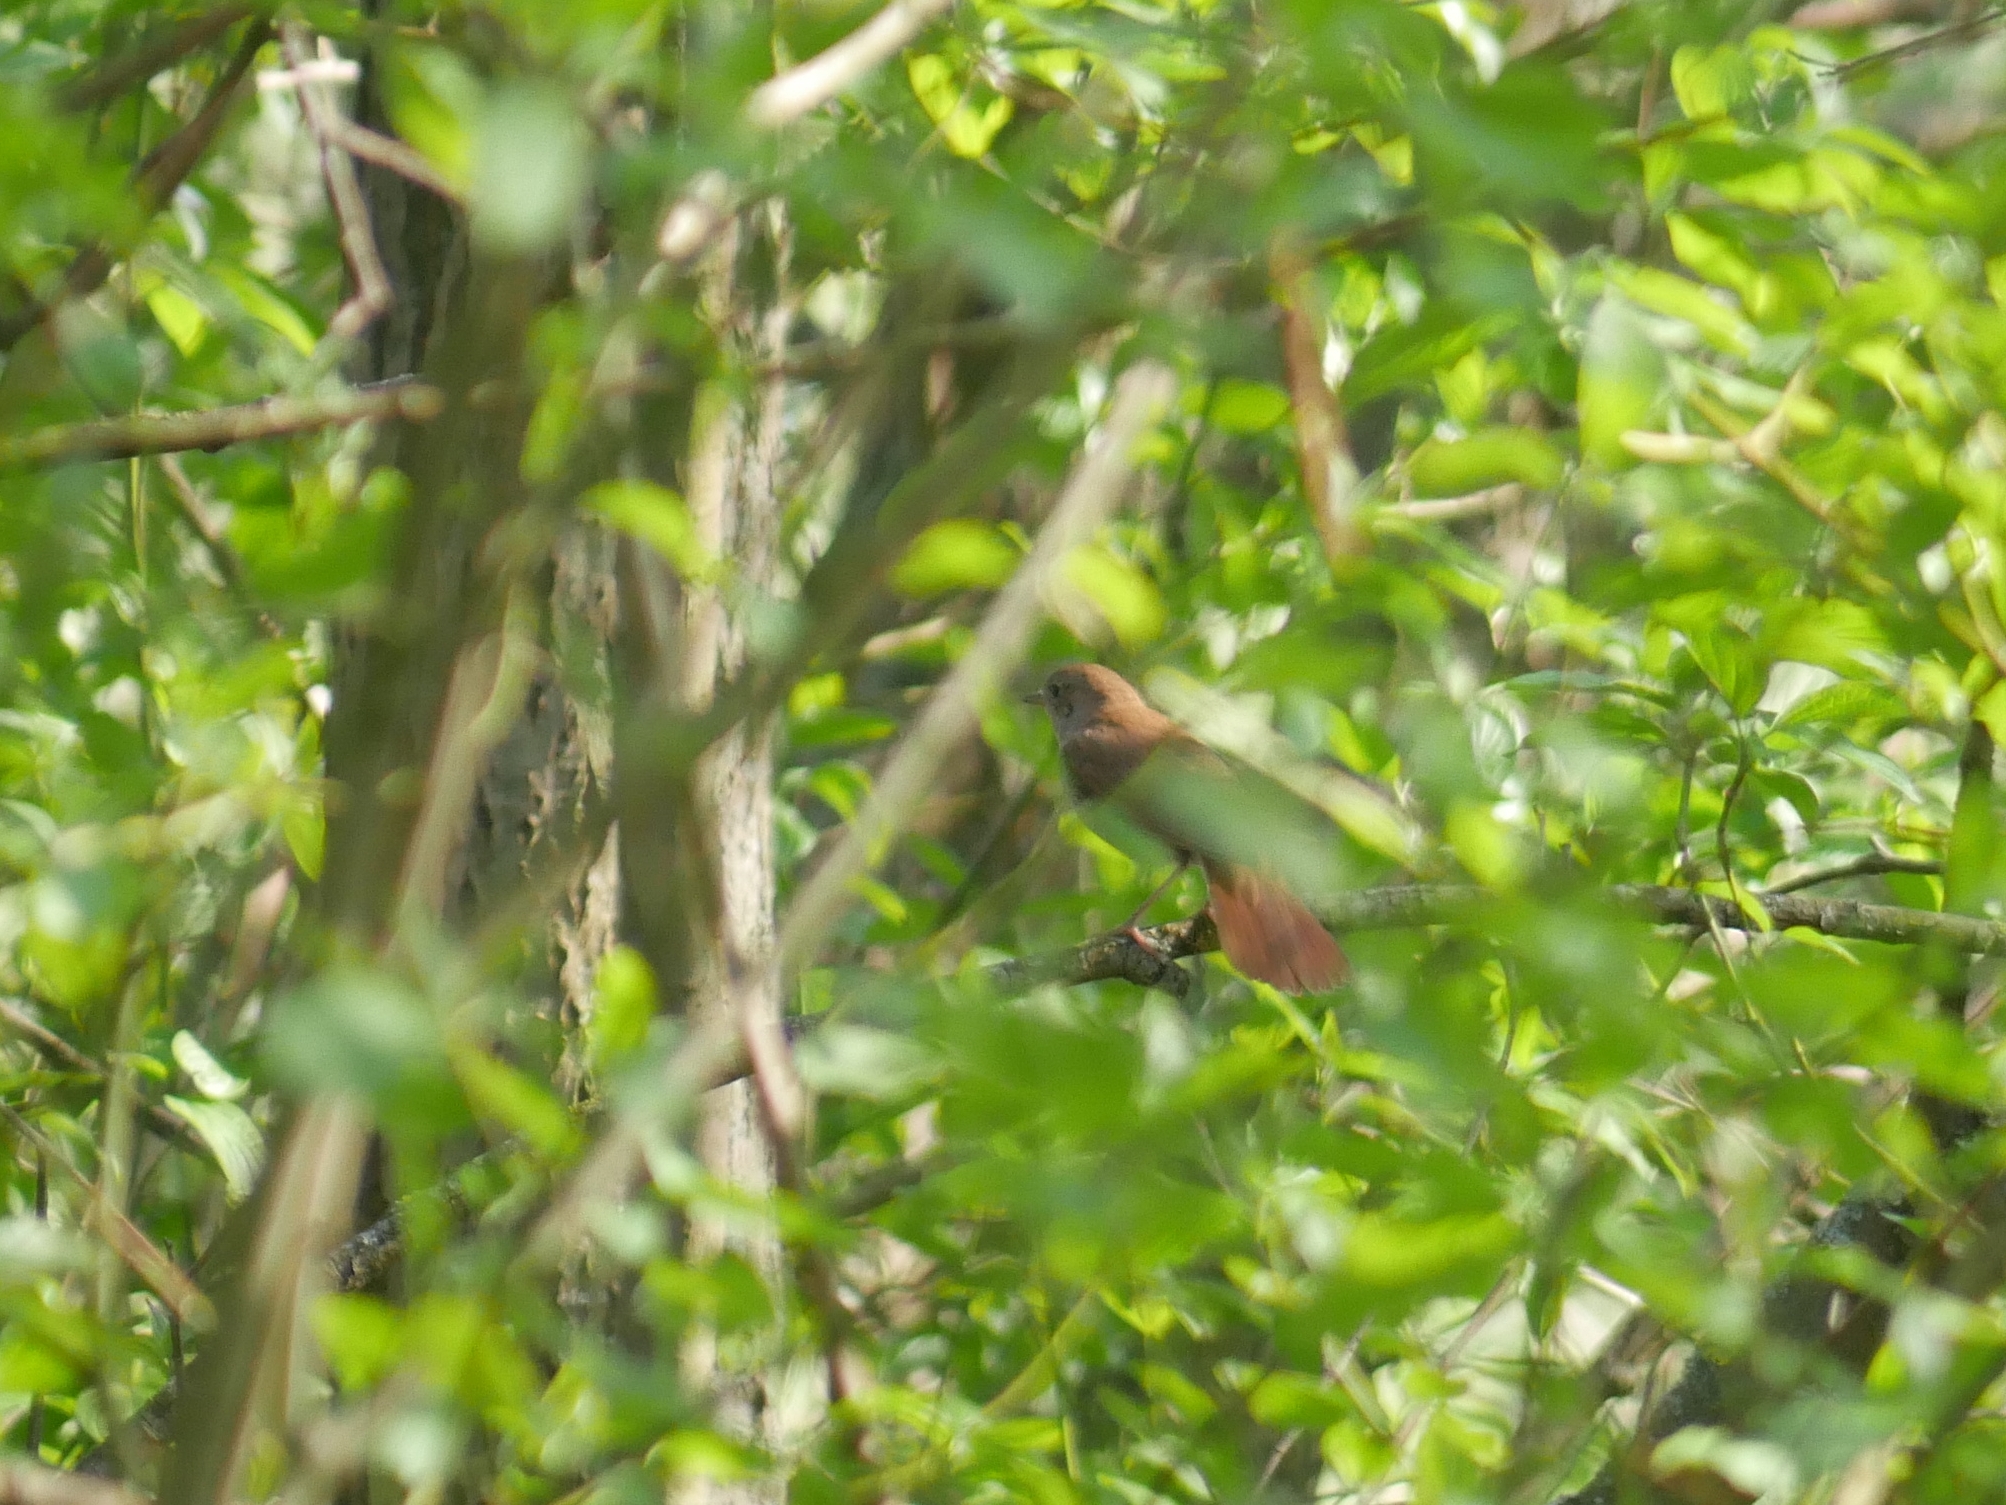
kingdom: Animalia
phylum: Chordata
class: Aves
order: Passeriformes
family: Muscicapidae
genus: Luscinia
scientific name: Luscinia megarhynchos
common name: Common nightingale
